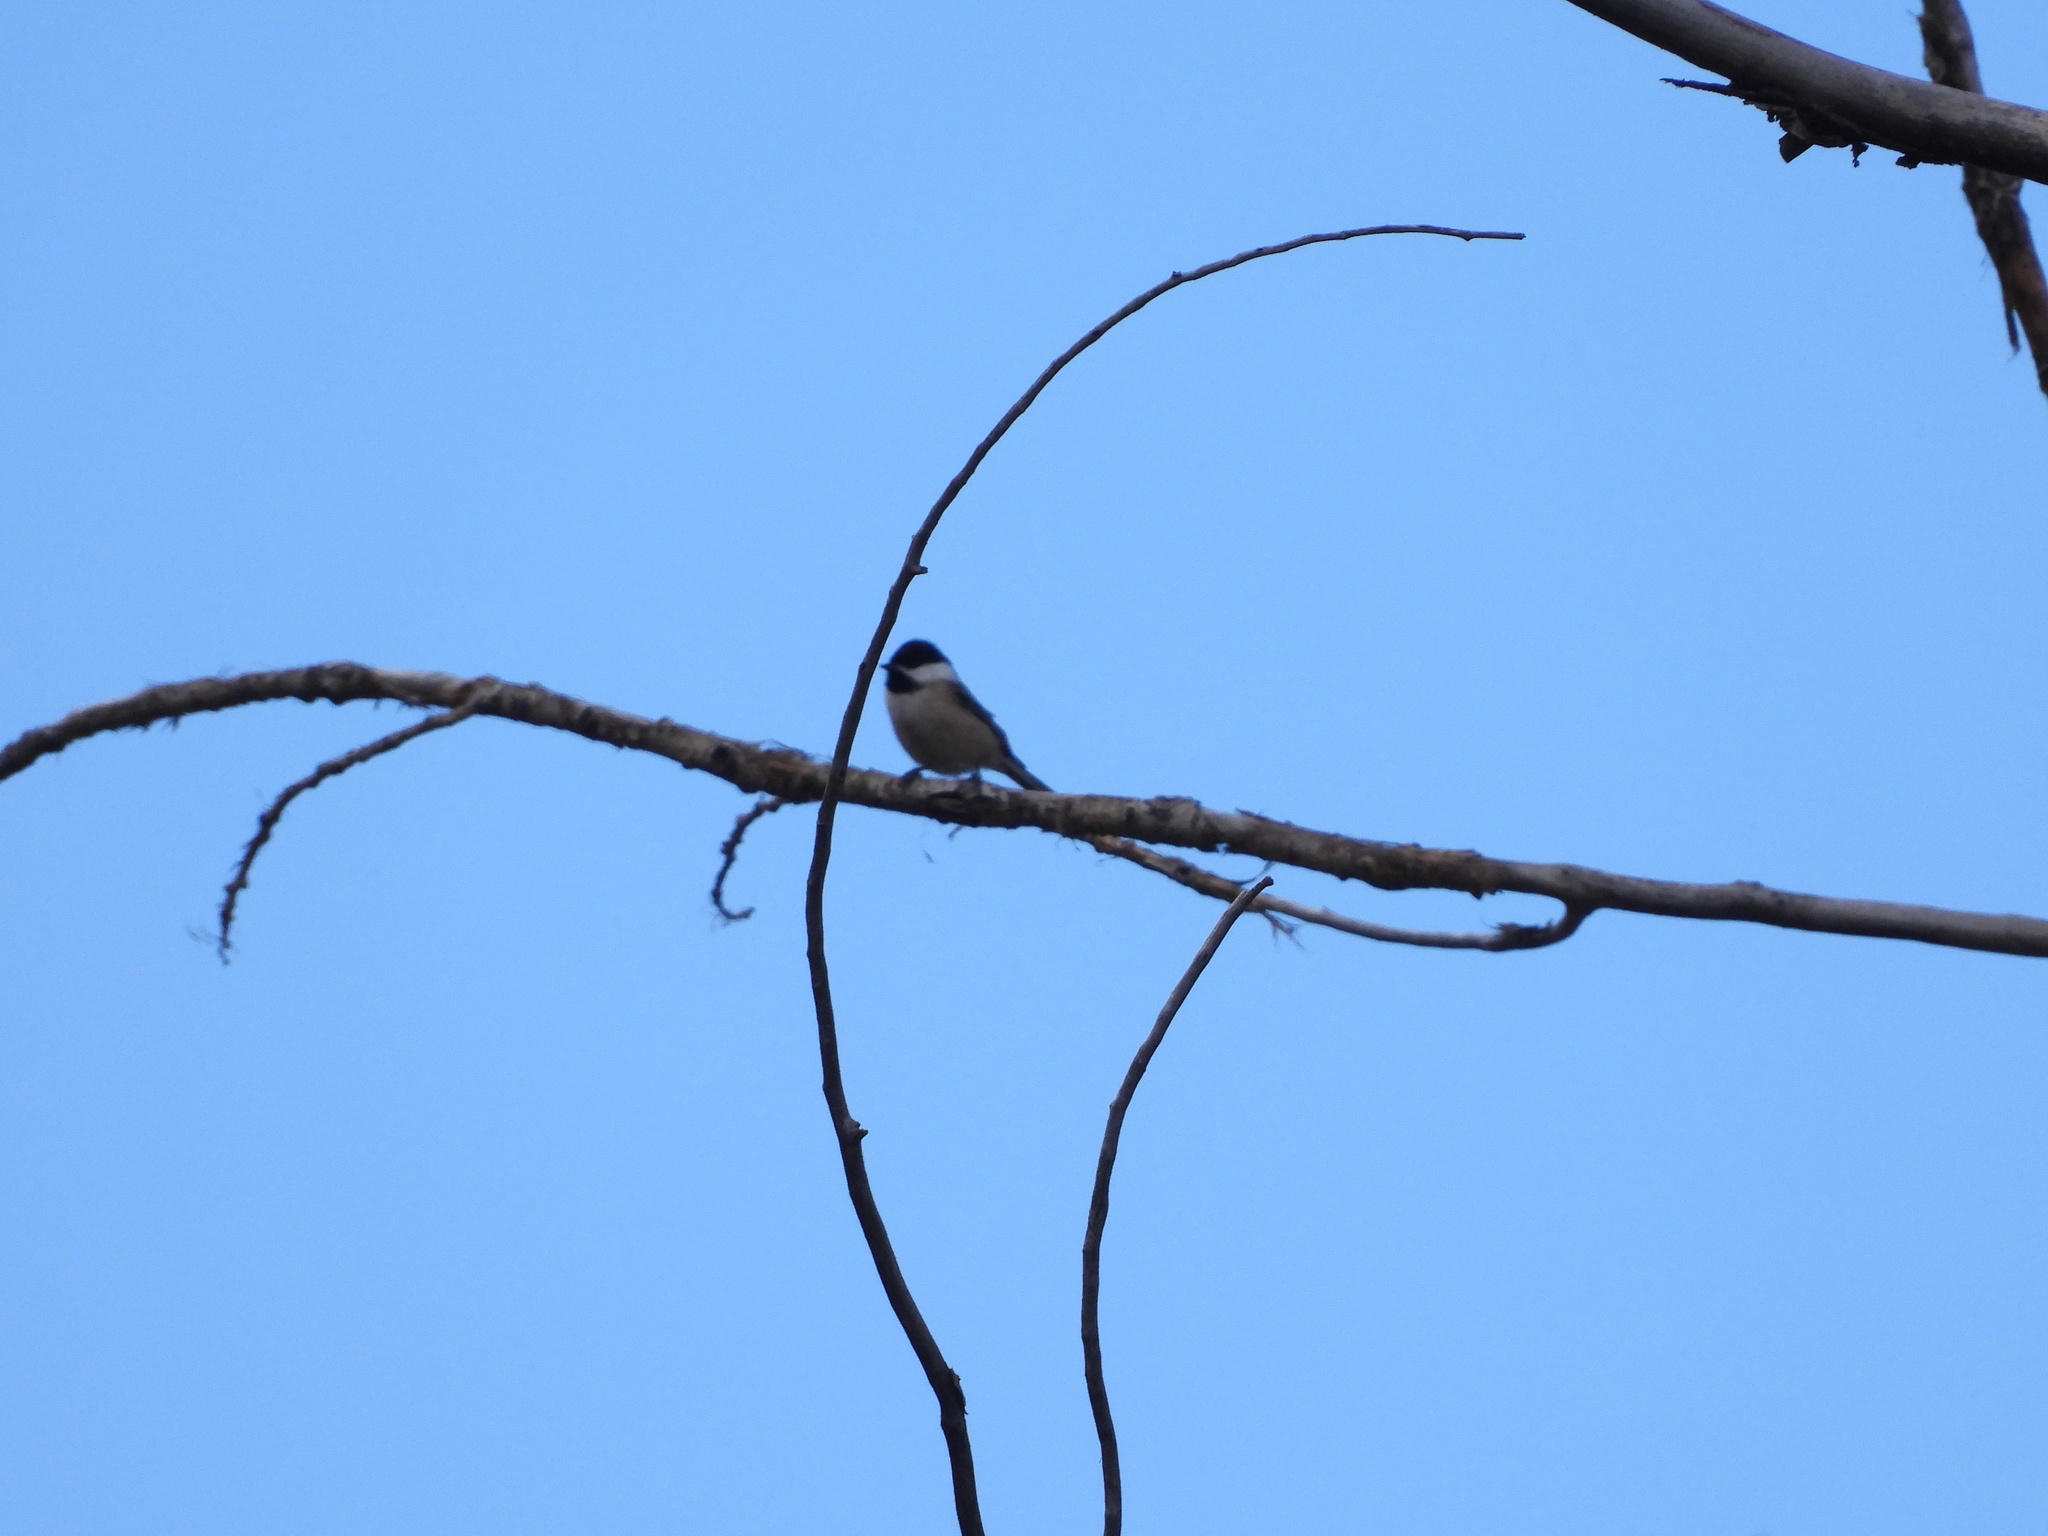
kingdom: Animalia
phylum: Chordata
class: Aves
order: Passeriformes
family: Paridae
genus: Poecile
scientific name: Poecile atricapillus
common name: Black-capped chickadee
